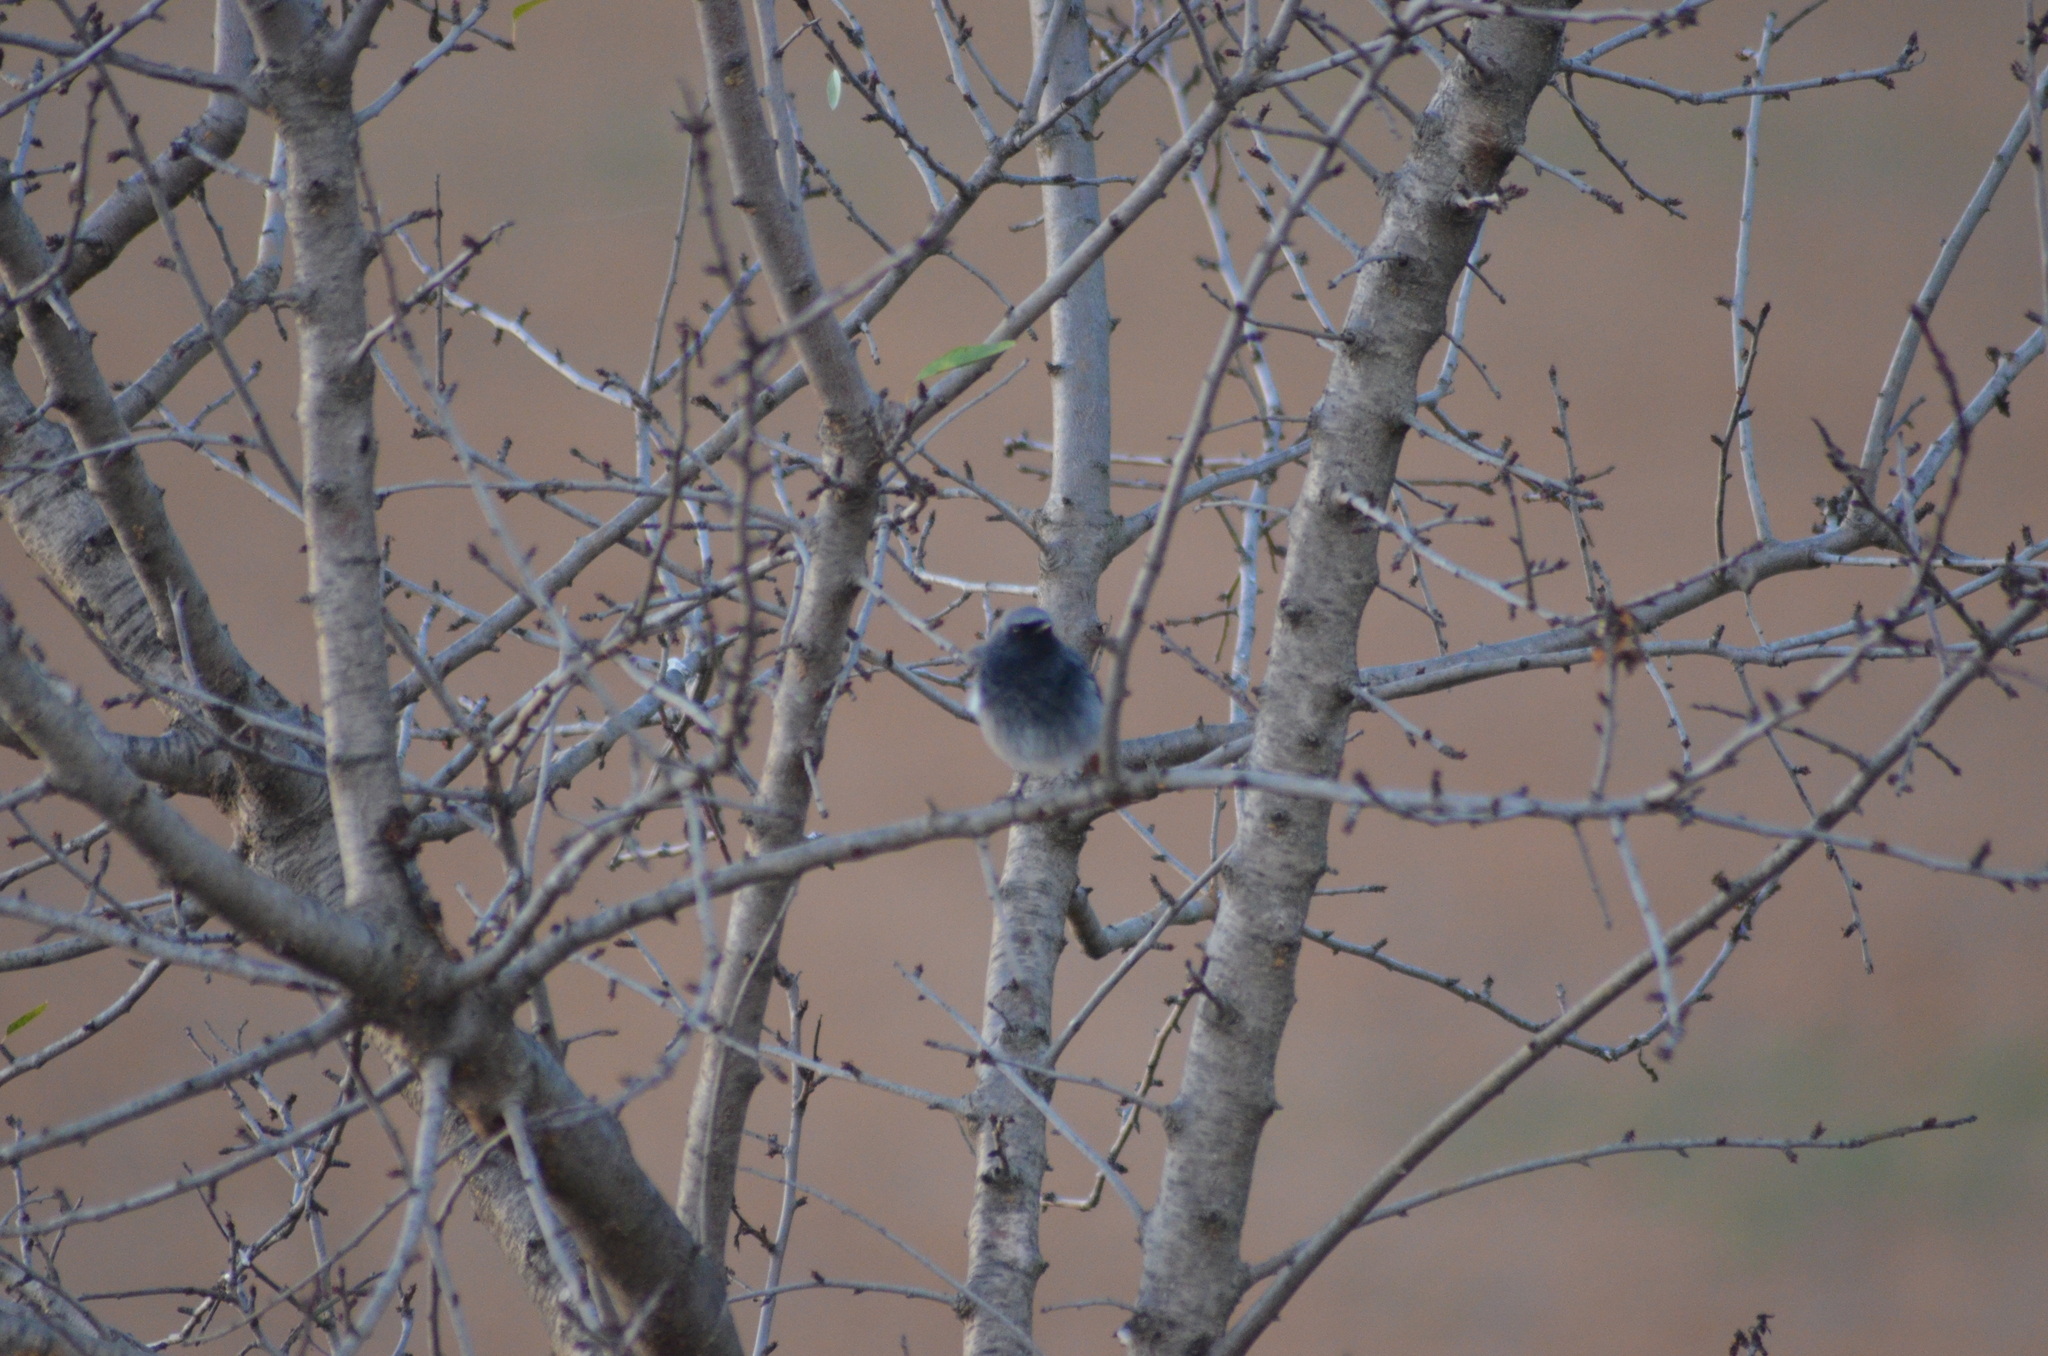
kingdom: Animalia
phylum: Chordata
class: Aves
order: Passeriformes
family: Muscicapidae
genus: Phoenicurus
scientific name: Phoenicurus ochruros
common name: Black redstart
